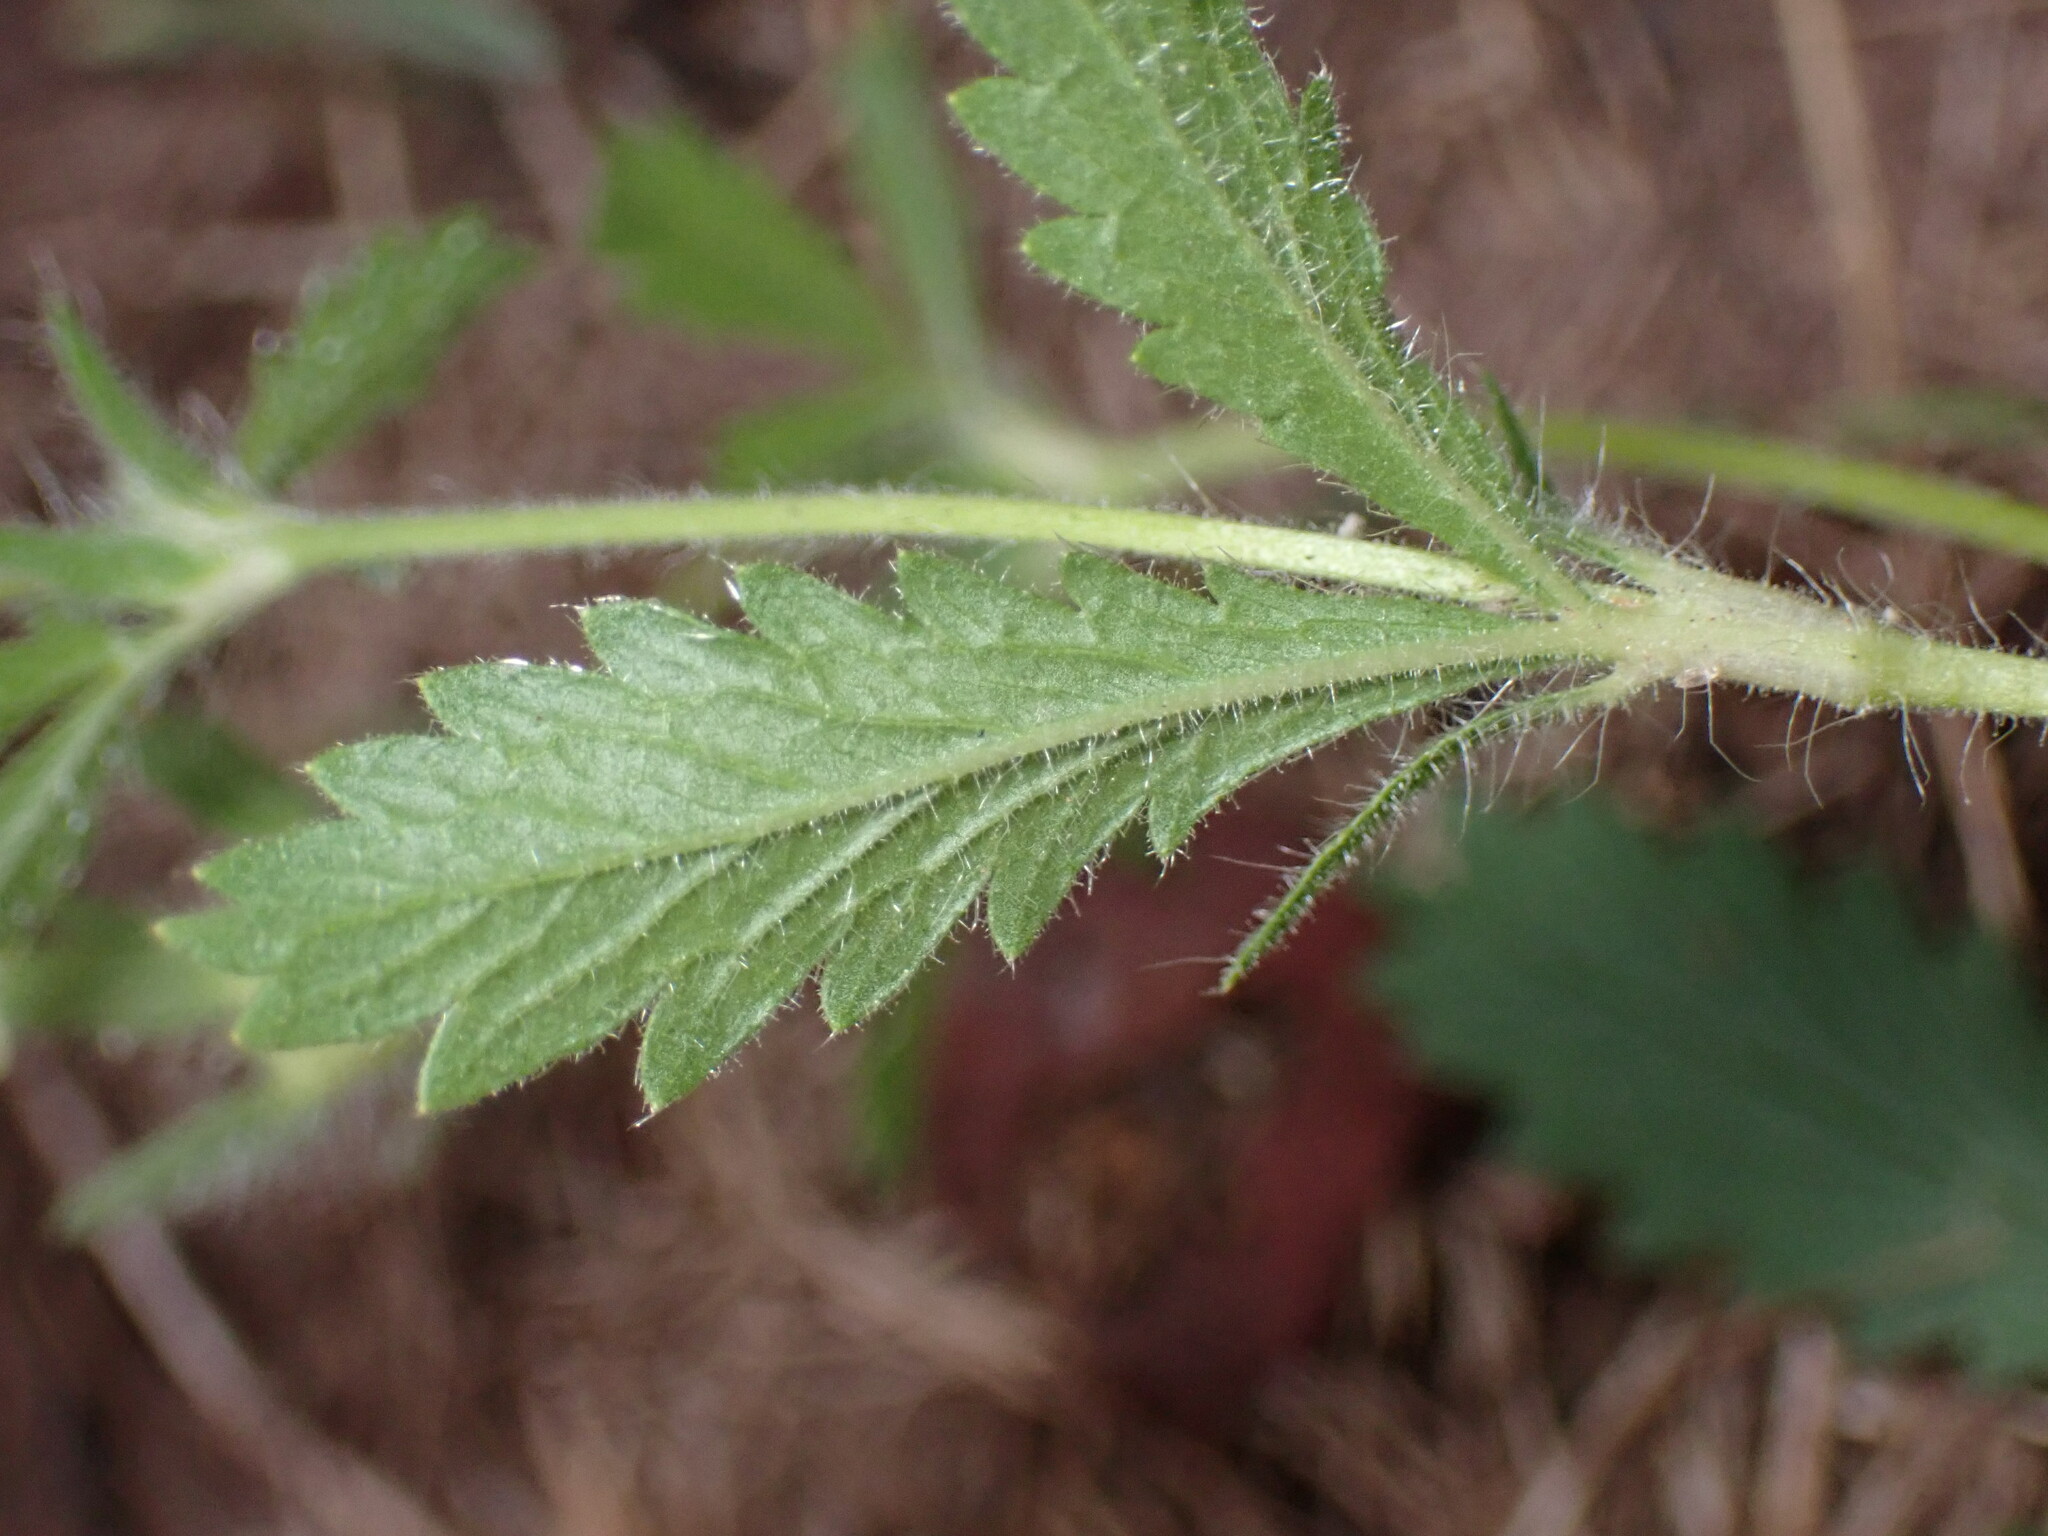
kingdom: Plantae
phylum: Tracheophyta
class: Magnoliopsida
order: Rosales
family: Rosaceae
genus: Potentilla
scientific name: Potentilla recta
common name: Sulphur cinquefoil
